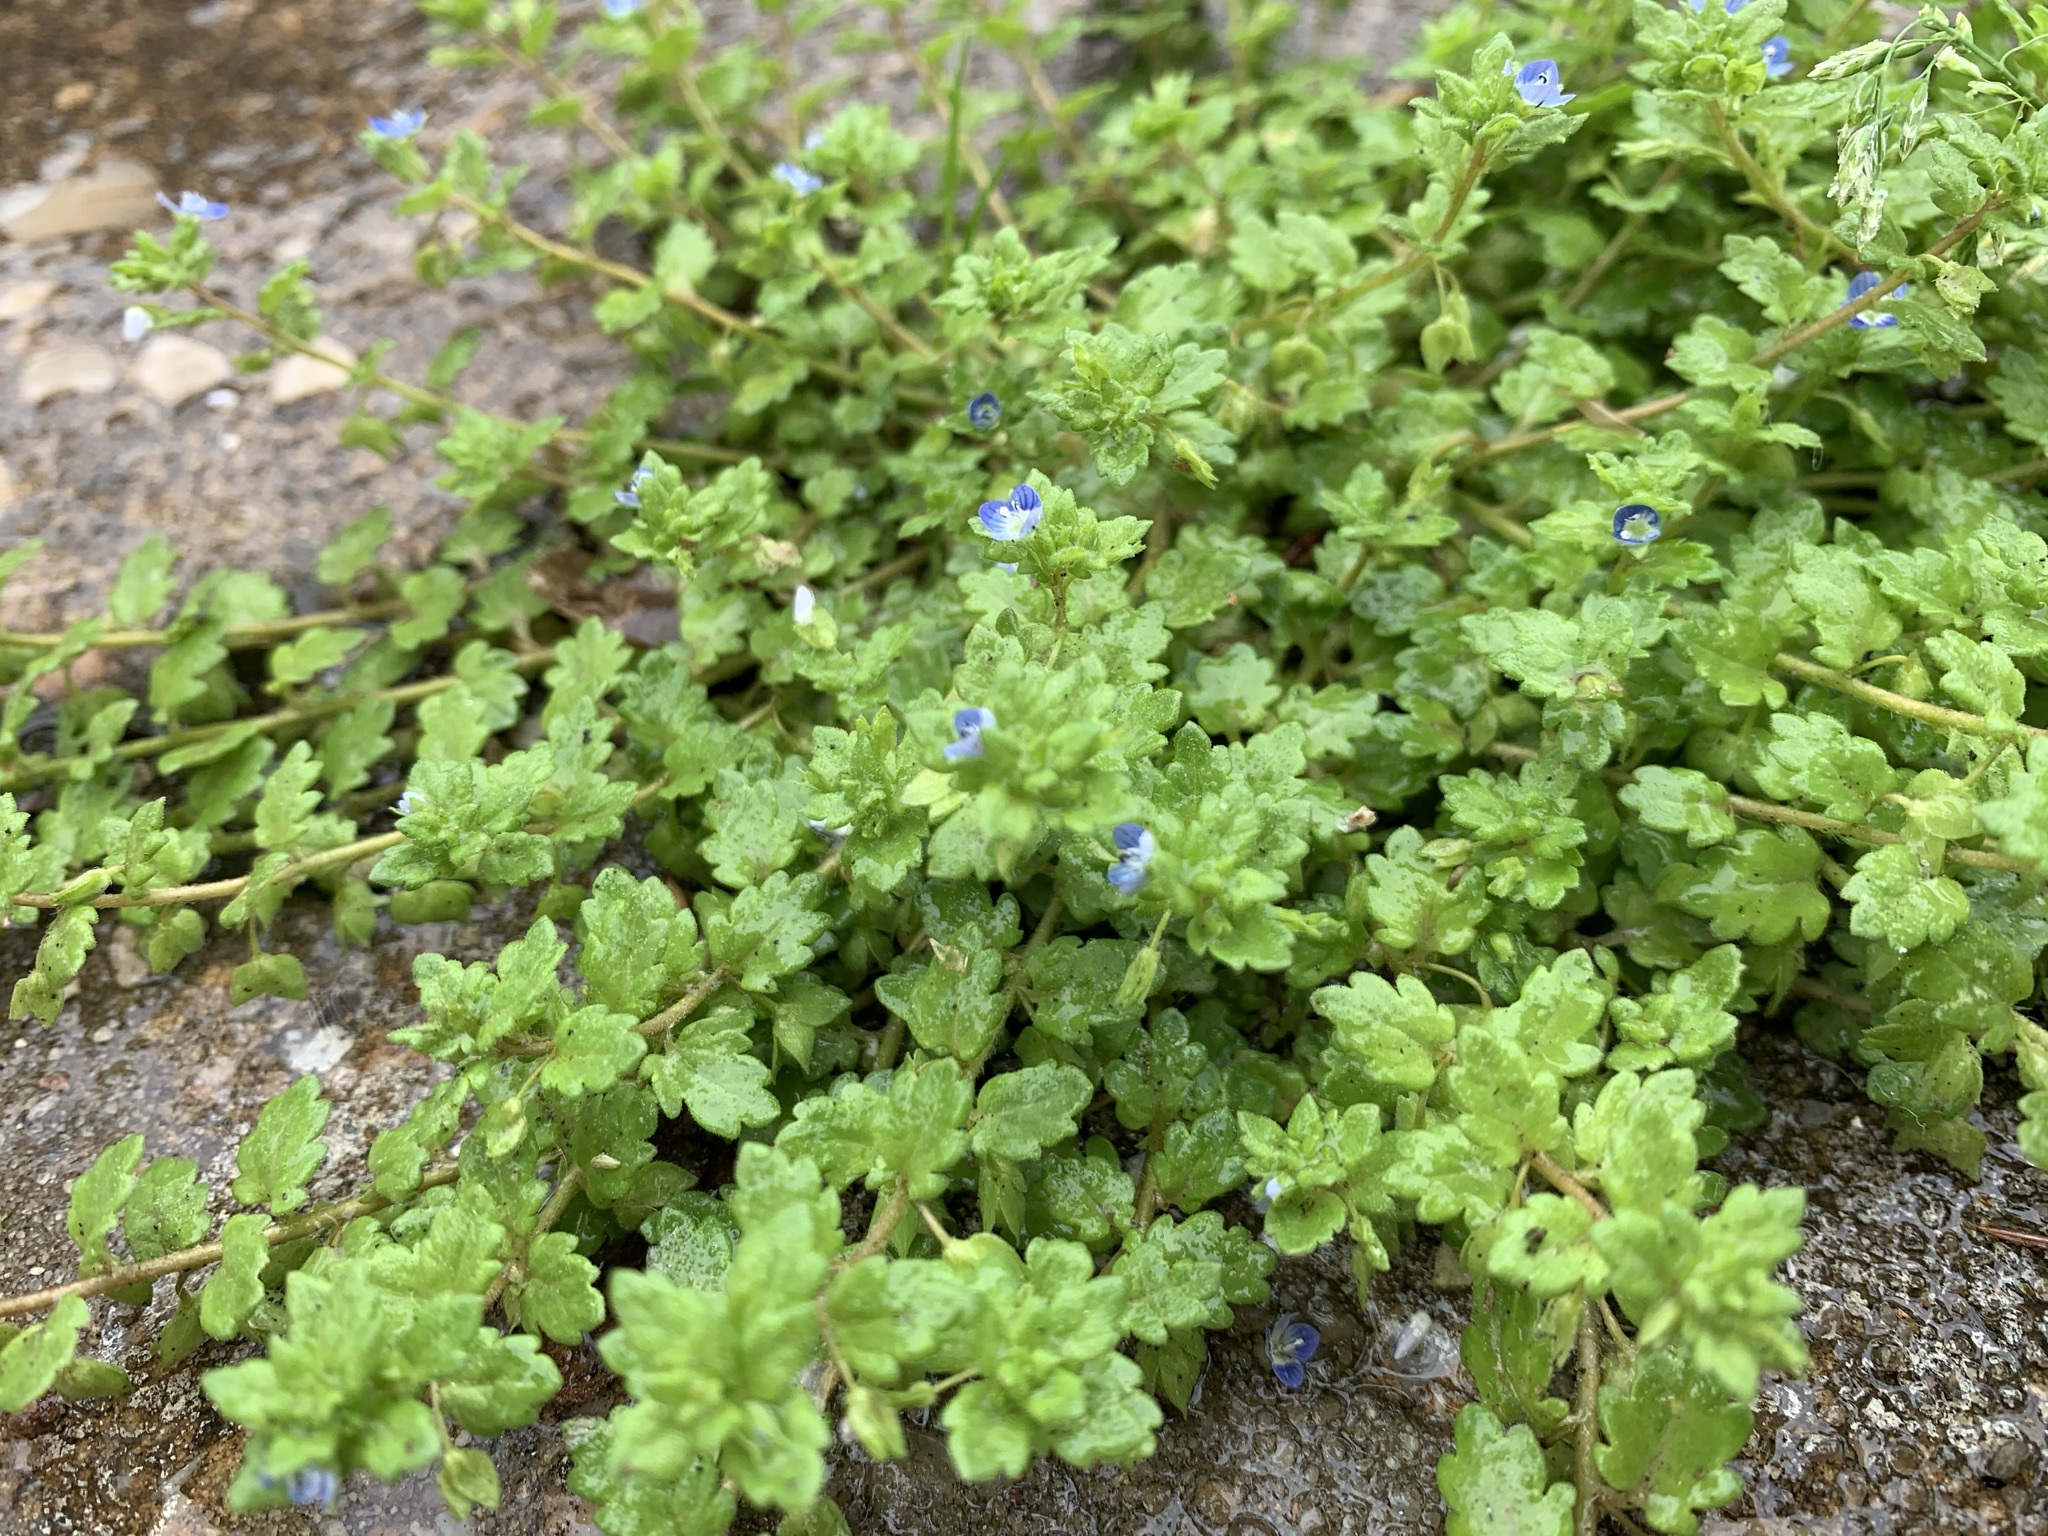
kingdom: Plantae
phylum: Tracheophyta
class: Magnoliopsida
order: Lamiales
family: Plantaginaceae
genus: Veronica
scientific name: Veronica persica
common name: Common field-speedwell
